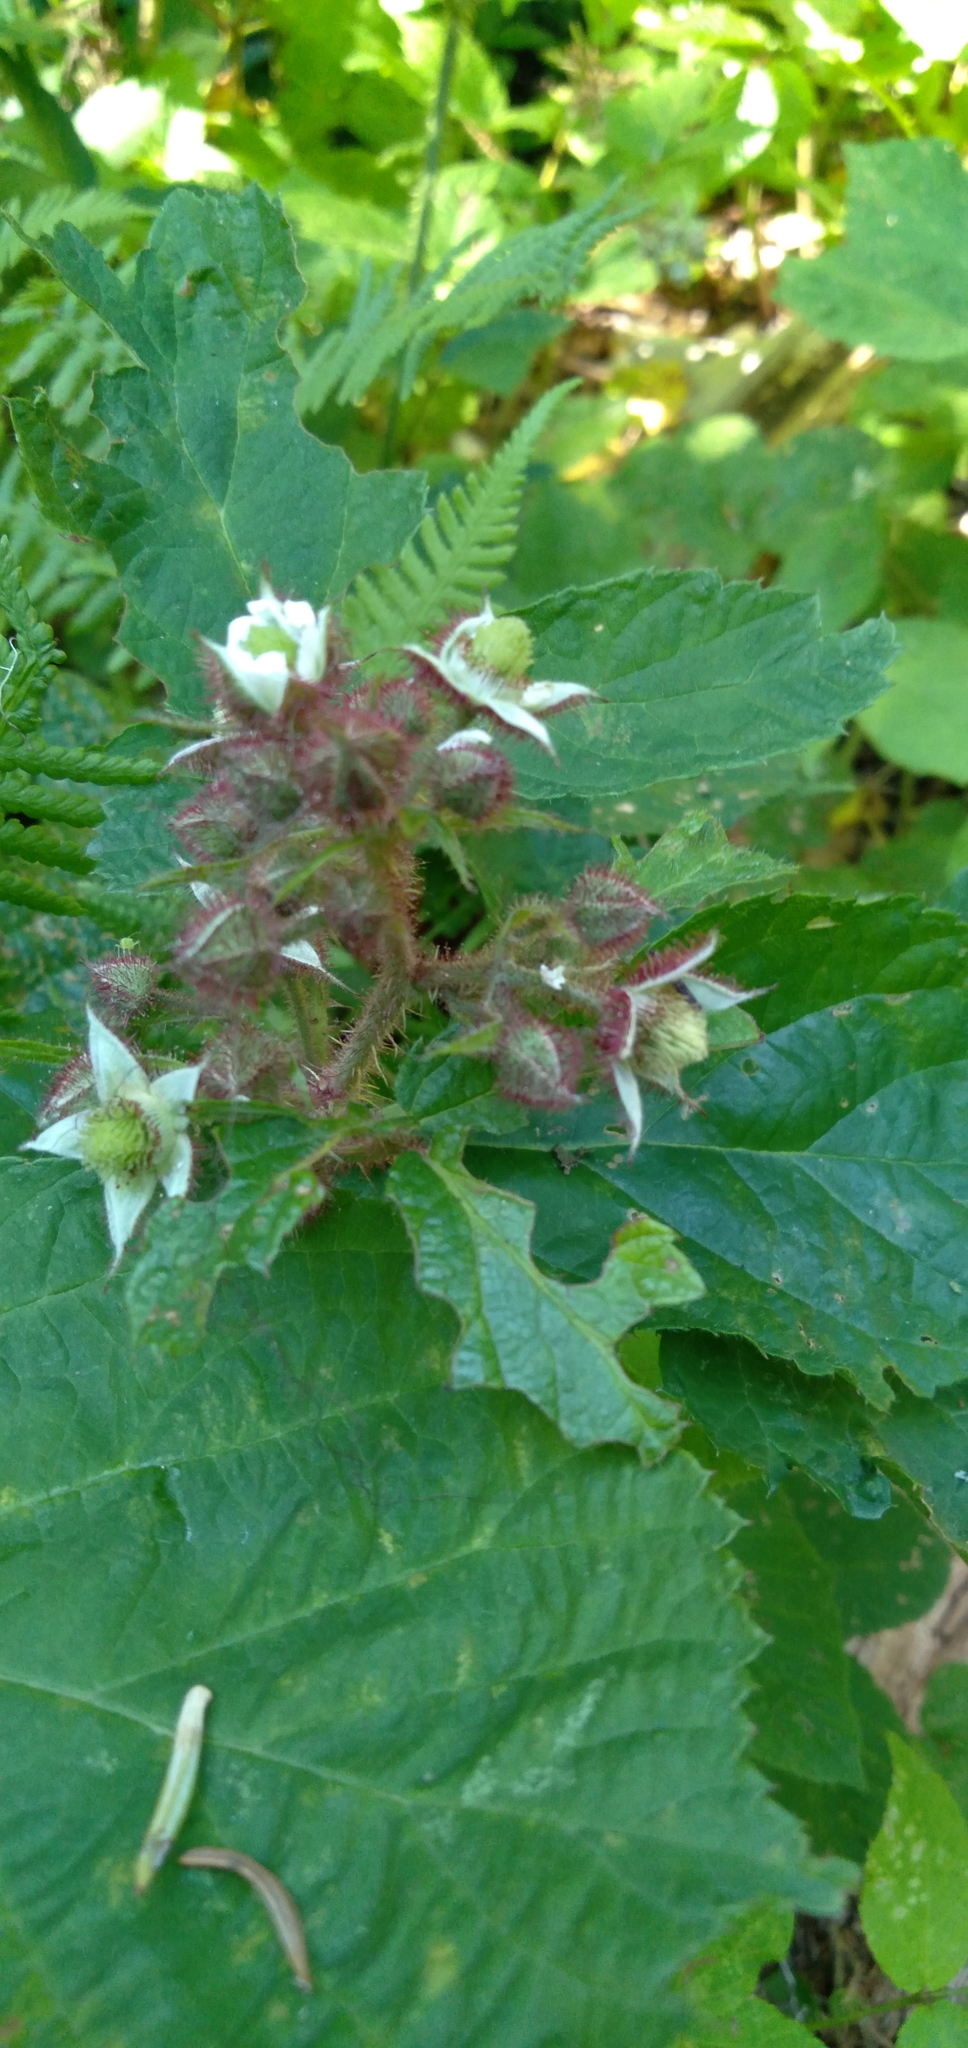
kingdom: Plantae
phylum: Tracheophyta
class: Magnoliopsida
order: Rosales
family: Rosaceae
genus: Rubus
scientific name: Rubus hirtus
